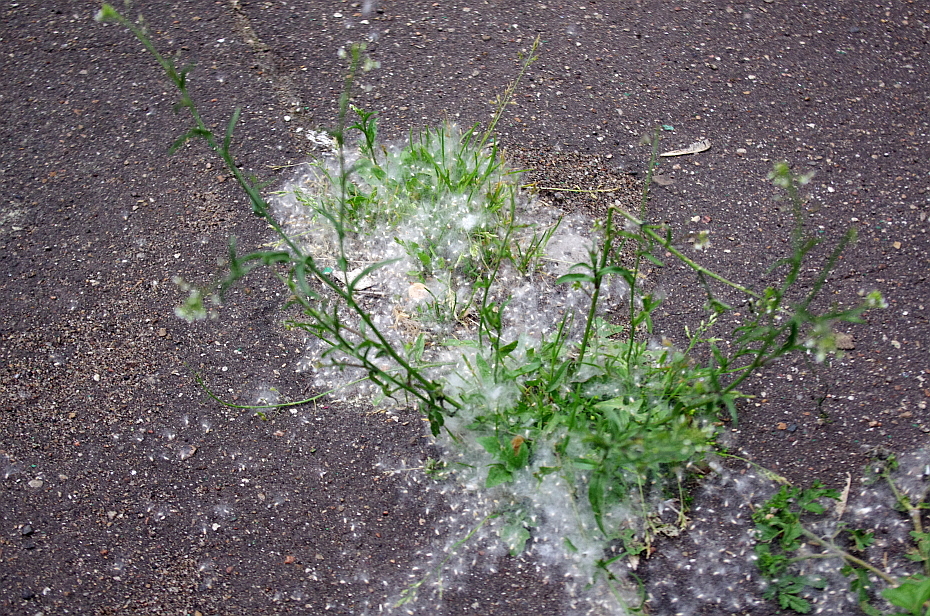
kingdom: Plantae
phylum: Tracheophyta
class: Magnoliopsida
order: Brassicales
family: Brassicaceae
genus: Capsella
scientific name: Capsella bursa-pastoris
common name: Shepherd's purse
